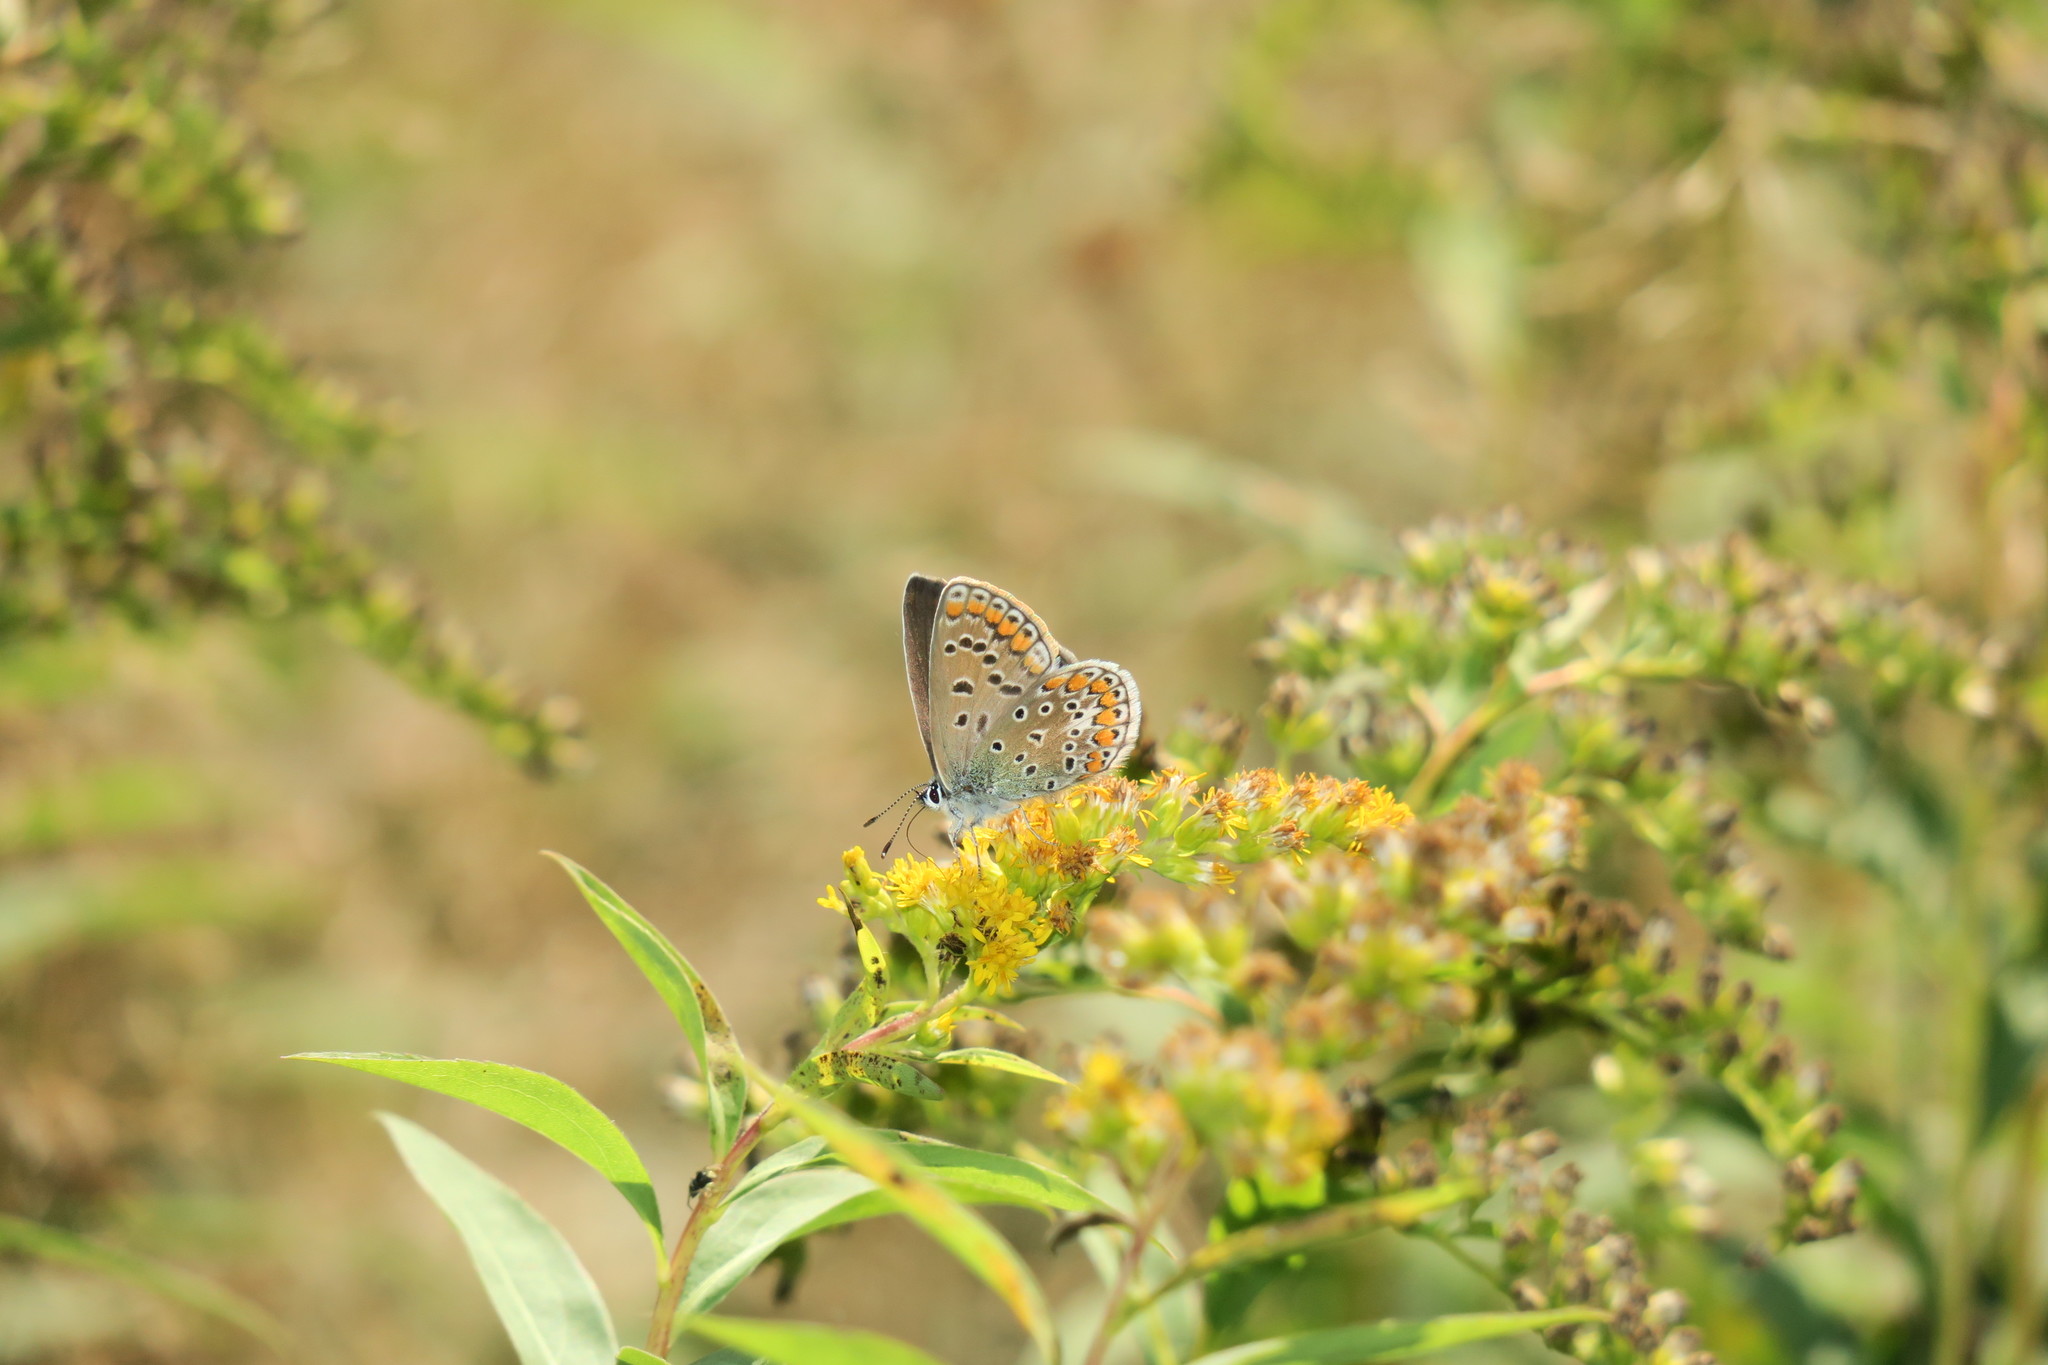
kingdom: Animalia
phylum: Arthropoda
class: Insecta
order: Lepidoptera
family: Lycaenidae
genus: Polyommatus
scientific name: Polyommatus icarus
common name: Common blue
